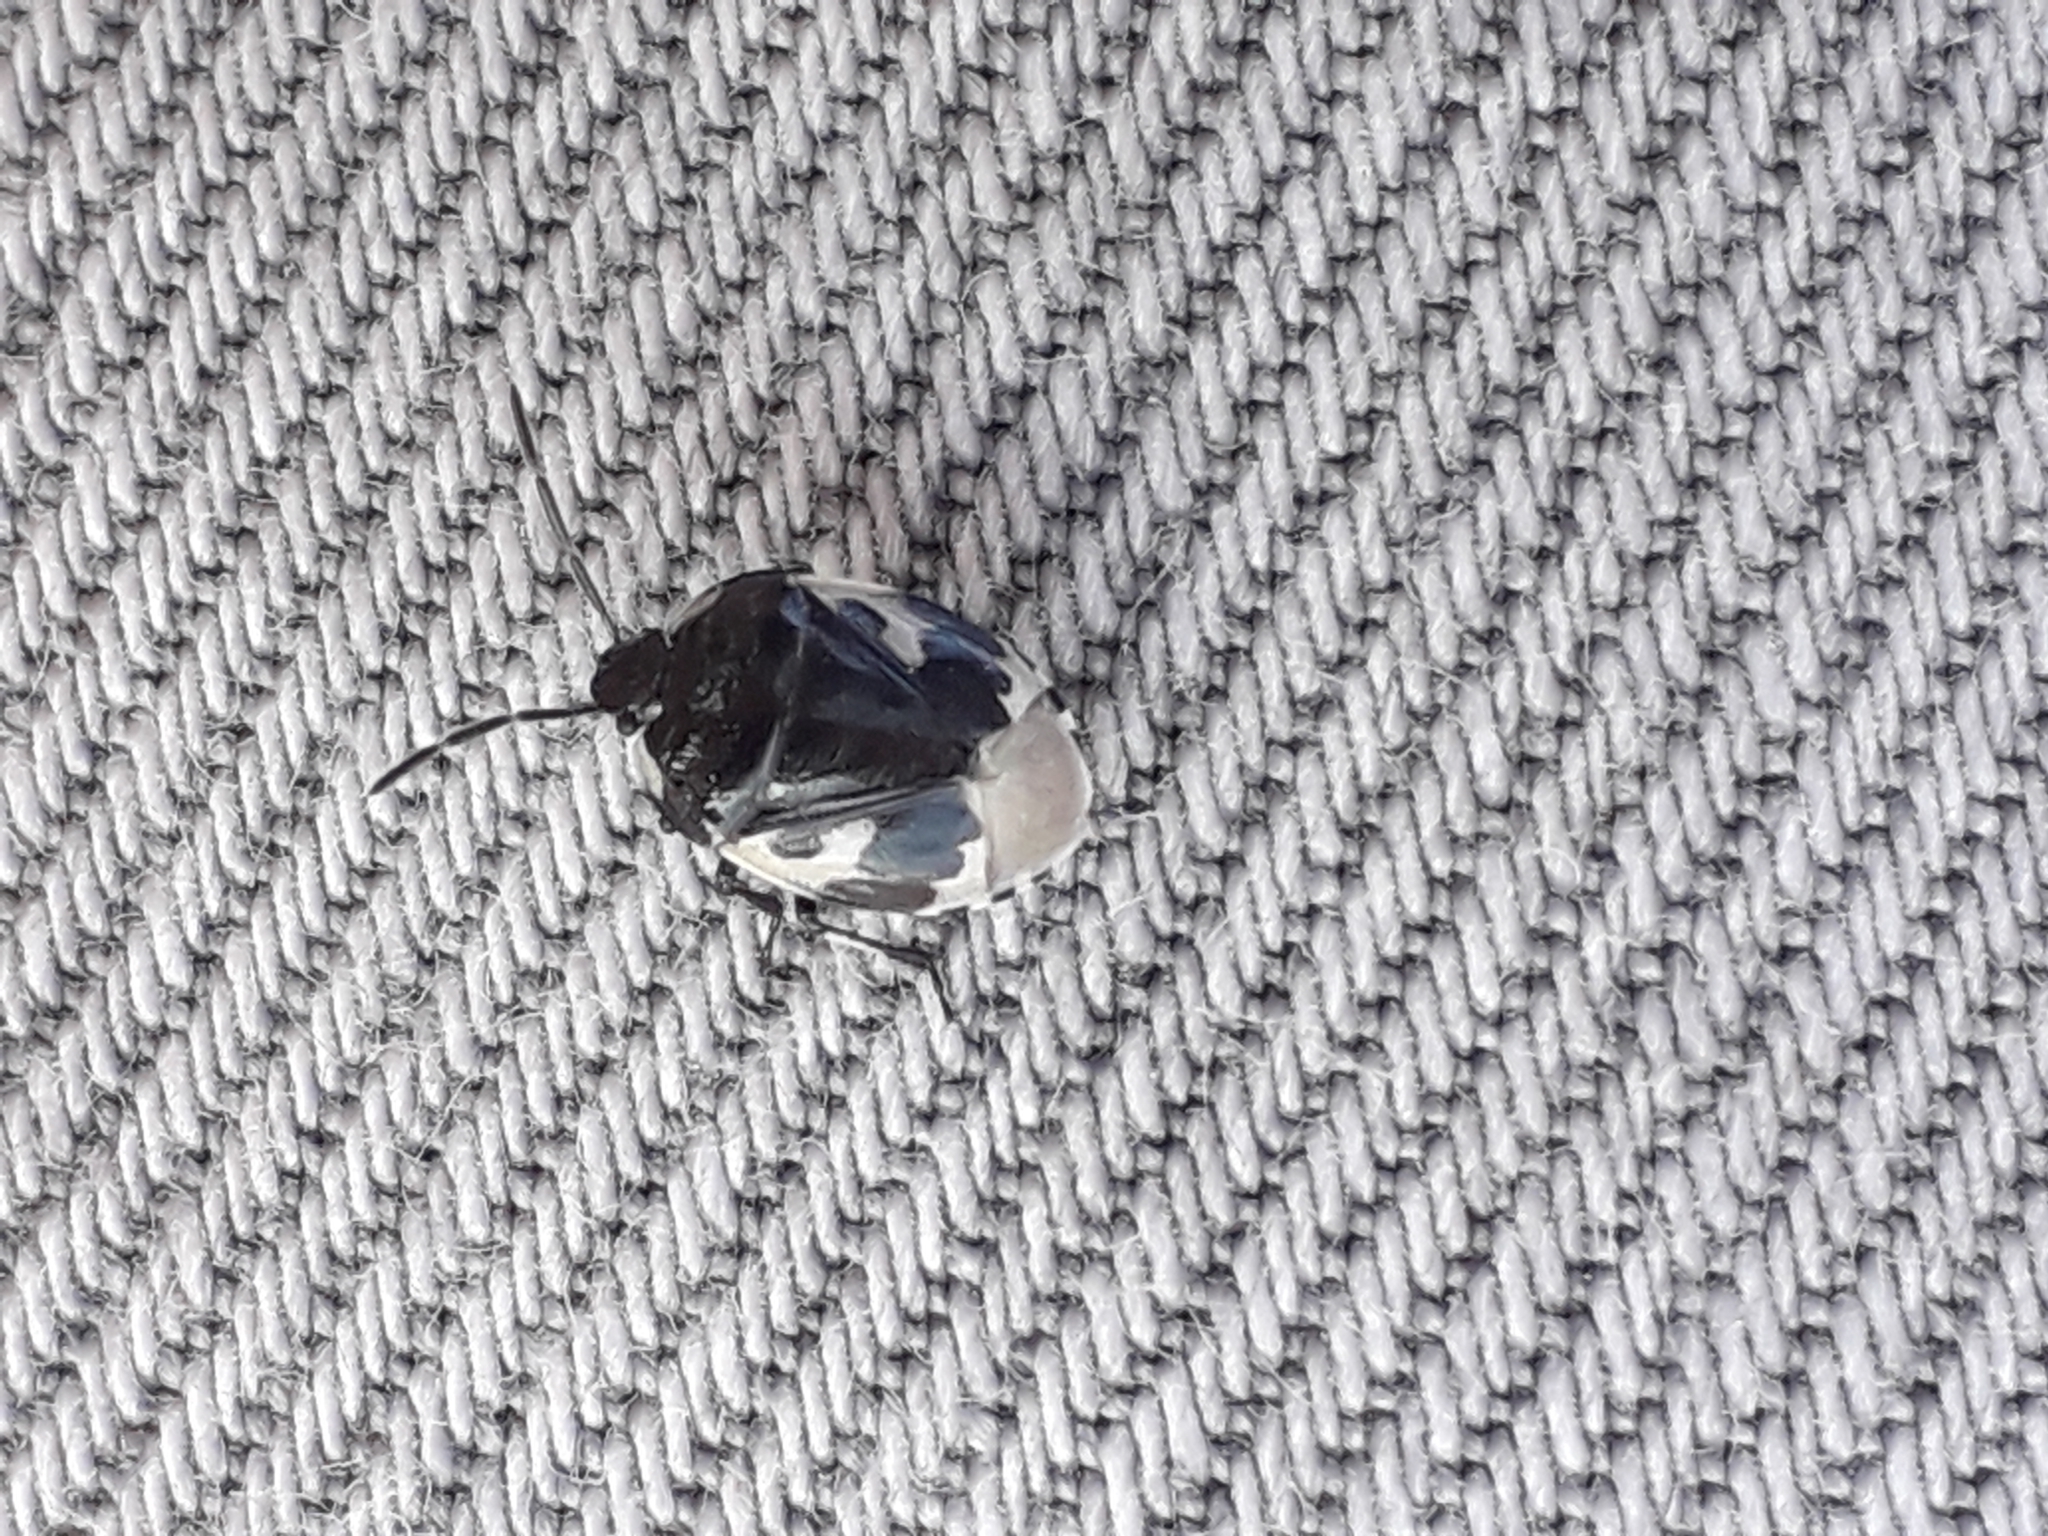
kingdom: Animalia
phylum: Arthropoda
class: Insecta
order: Hemiptera
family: Cydnidae
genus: Tritomegas
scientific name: Tritomegas bicolor
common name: Pied shieldbug
